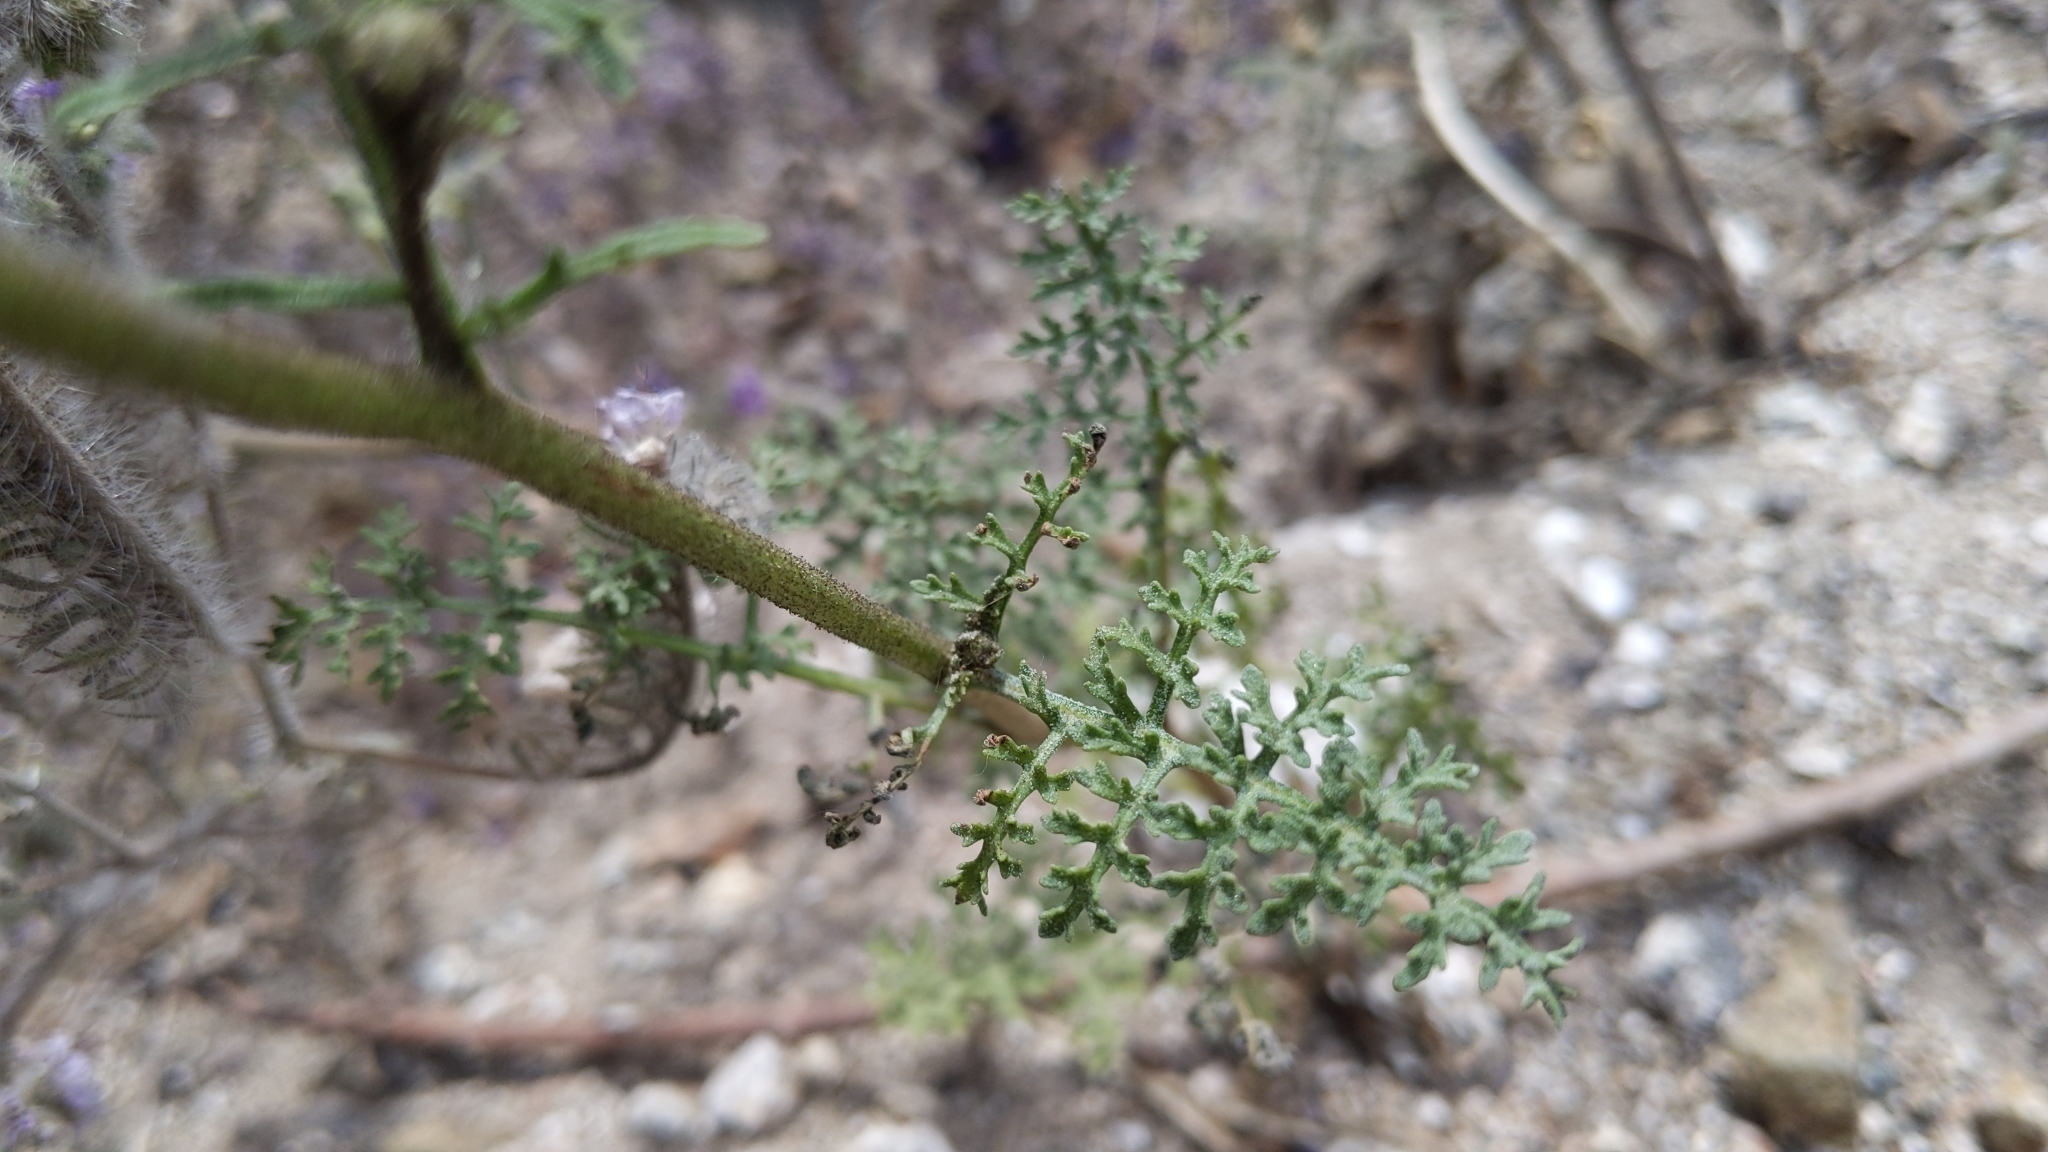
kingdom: Plantae
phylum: Tracheophyta
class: Magnoliopsida
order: Asterales
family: Asteraceae
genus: Chaenactis
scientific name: Chaenactis artemisiifolia
